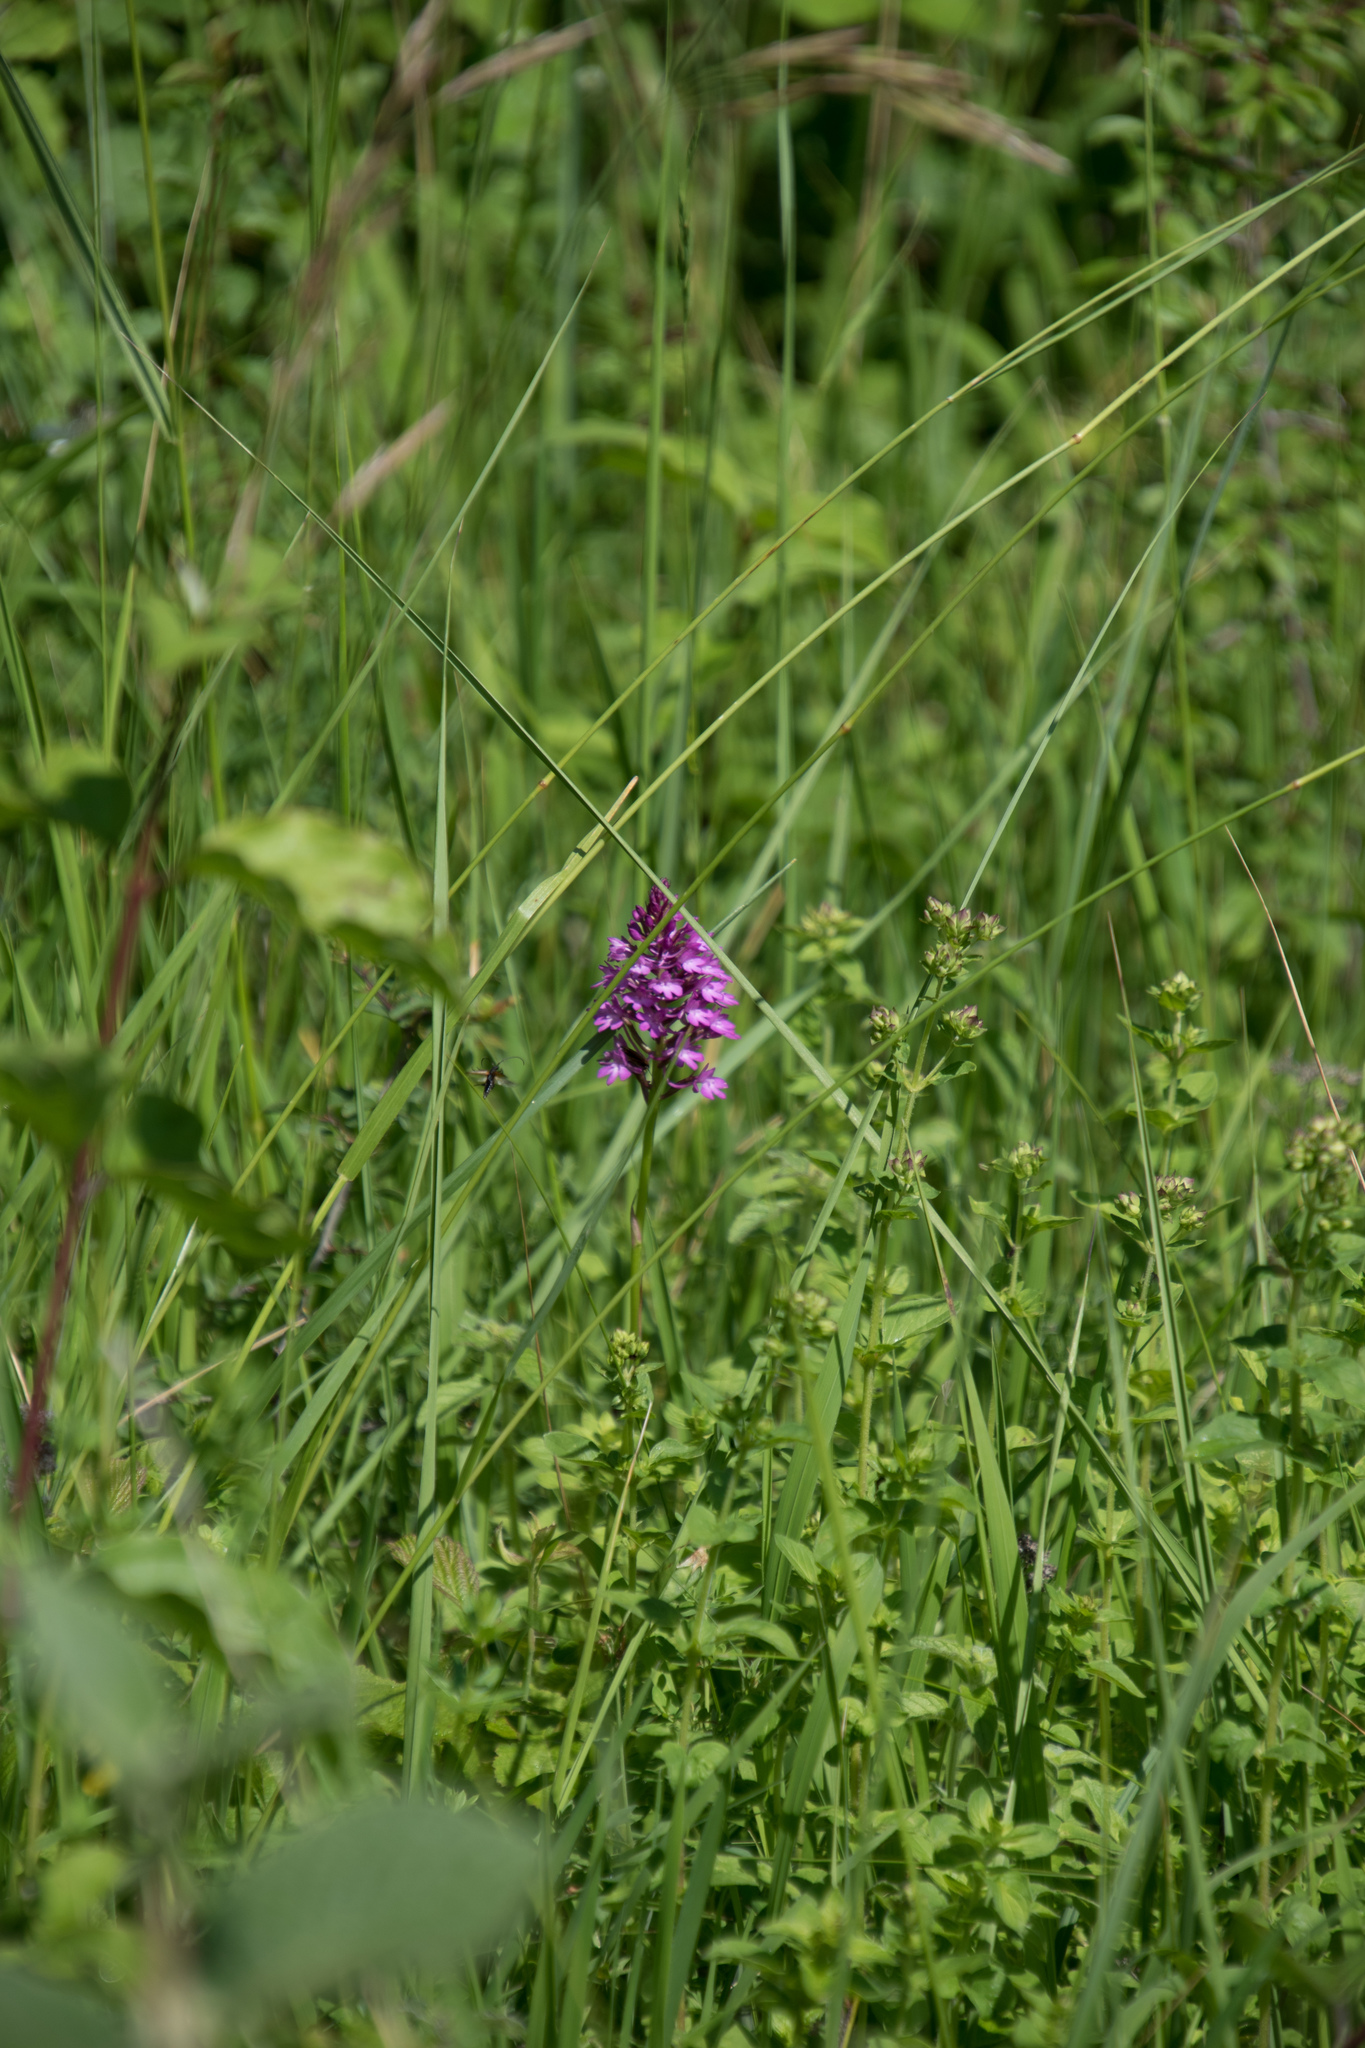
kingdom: Plantae
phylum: Tracheophyta
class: Liliopsida
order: Asparagales
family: Orchidaceae
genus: Anacamptis
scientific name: Anacamptis pyramidalis
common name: Pyramidal orchid
